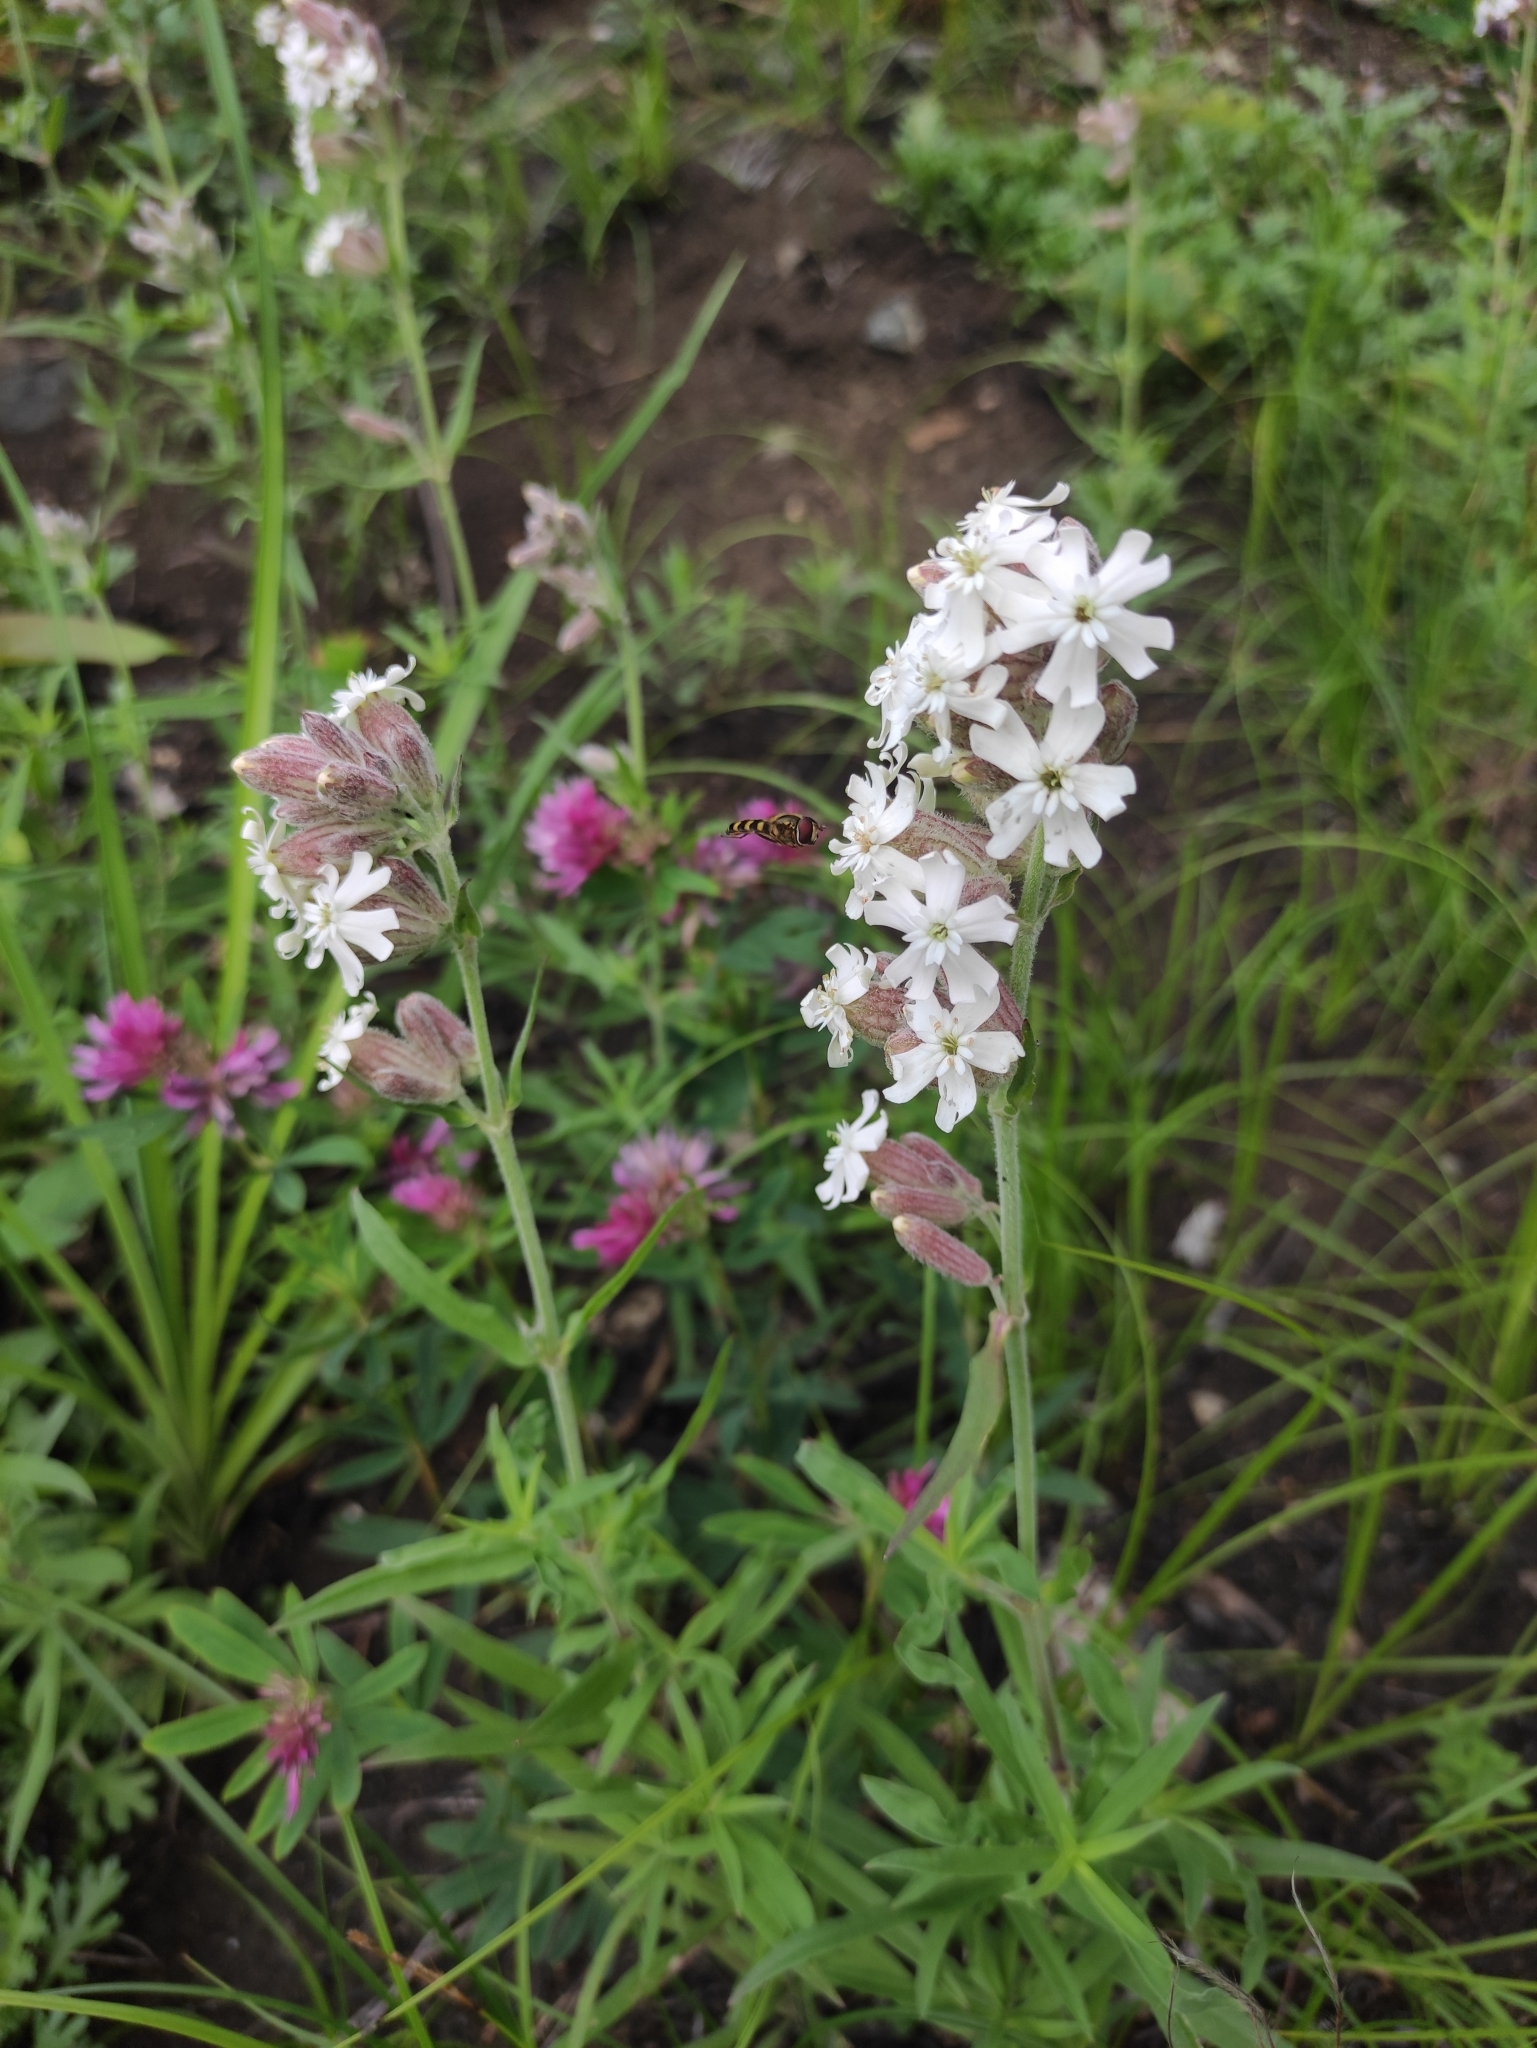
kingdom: Plantae
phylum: Tracheophyta
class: Magnoliopsida
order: Caryophyllales
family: Caryophyllaceae
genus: Silene
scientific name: Silene amoena
